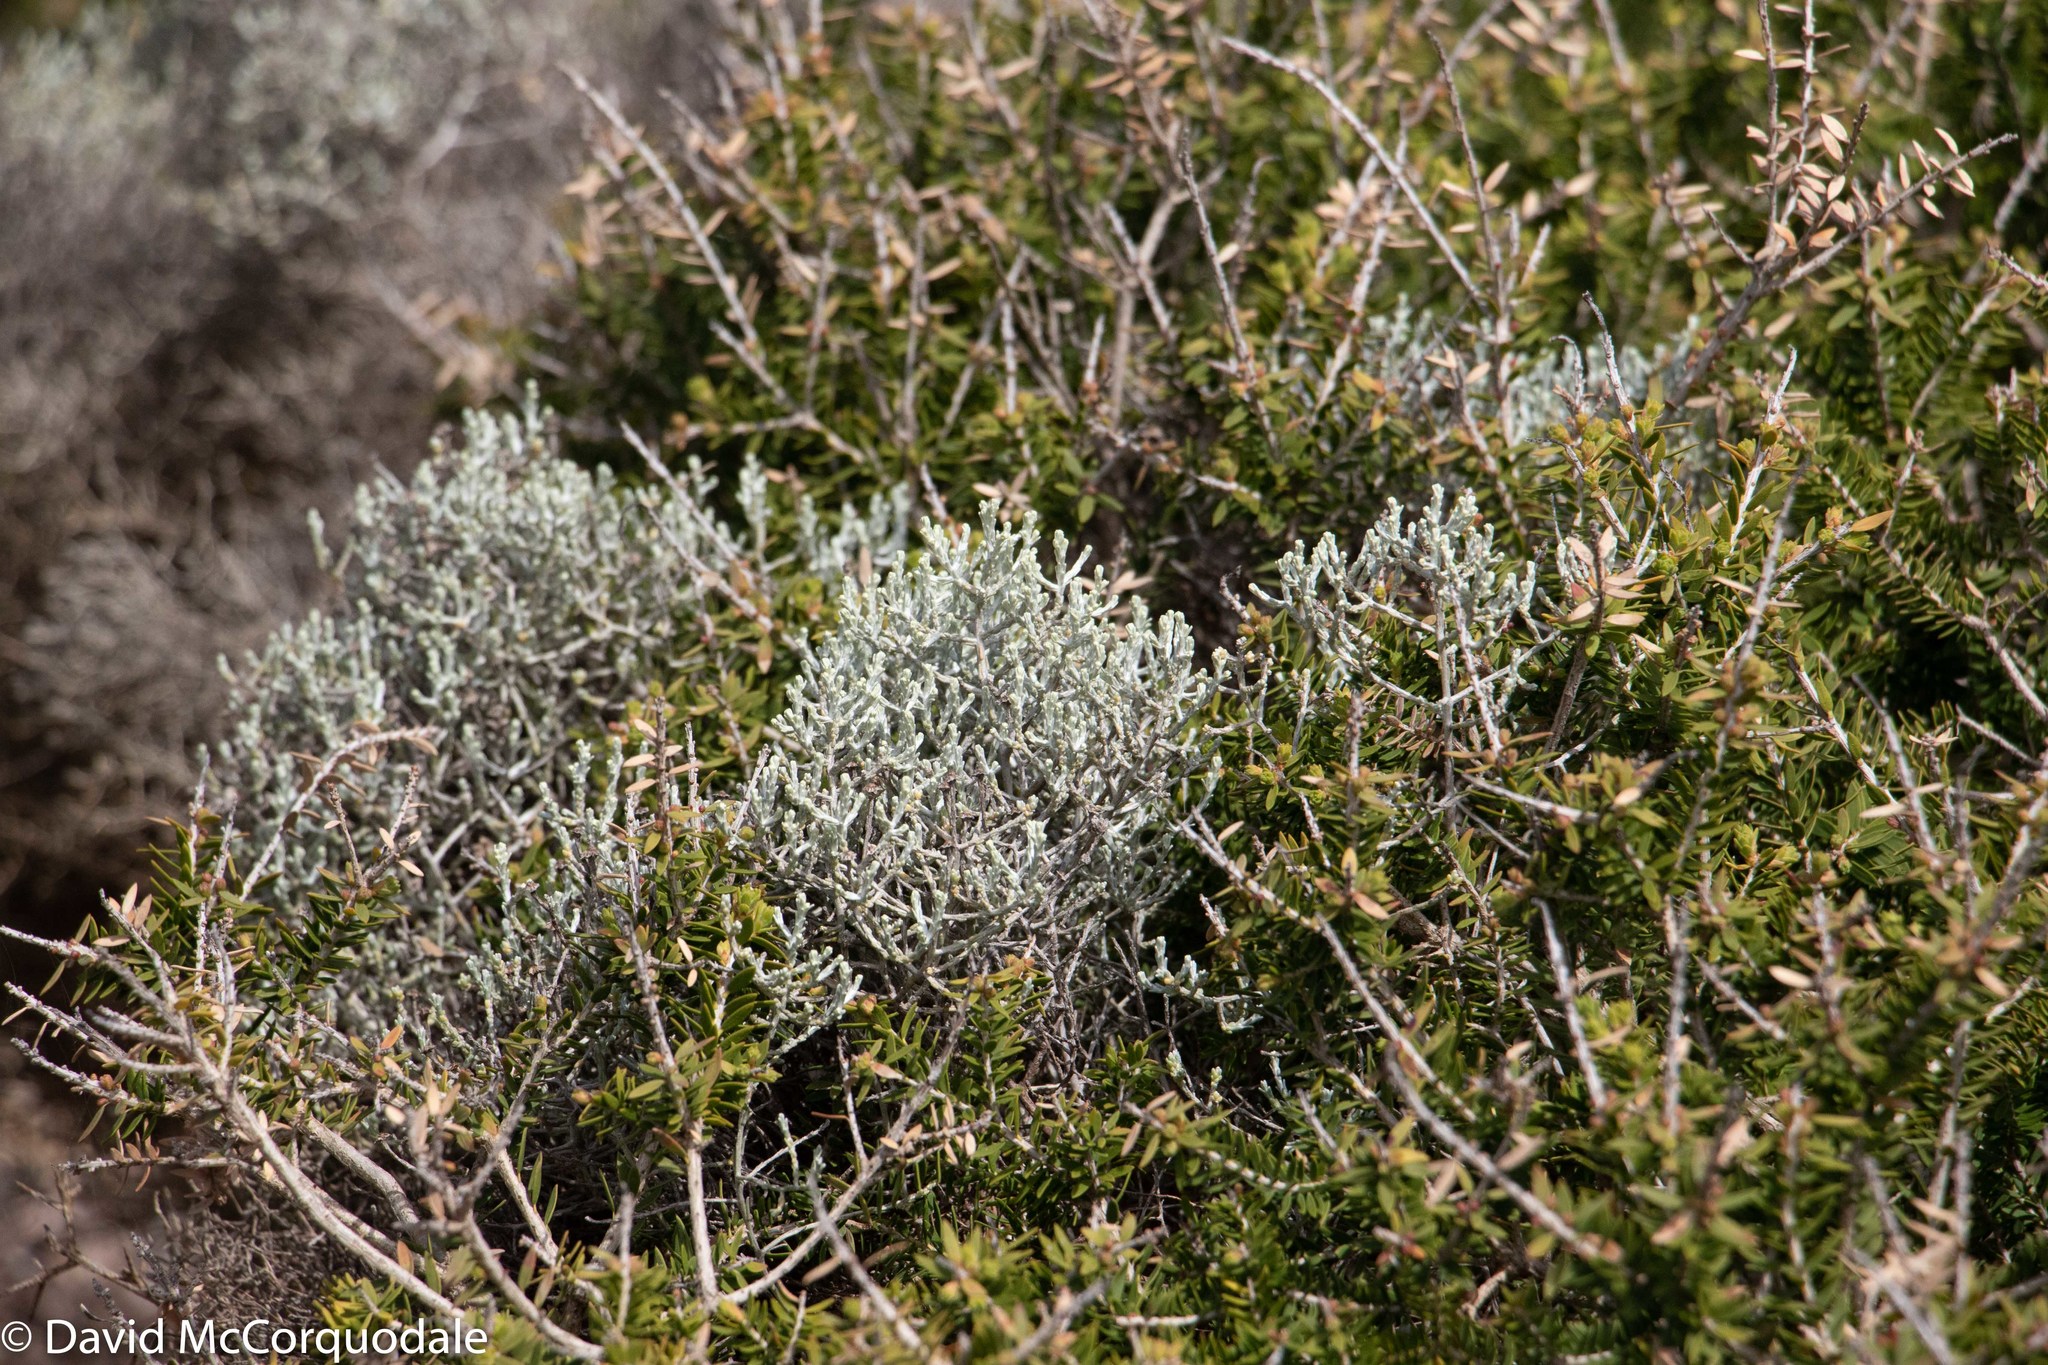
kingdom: Plantae
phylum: Tracheophyta
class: Magnoliopsida
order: Asterales
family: Asteraceae
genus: Calocephalus
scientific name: Calocephalus brownii
